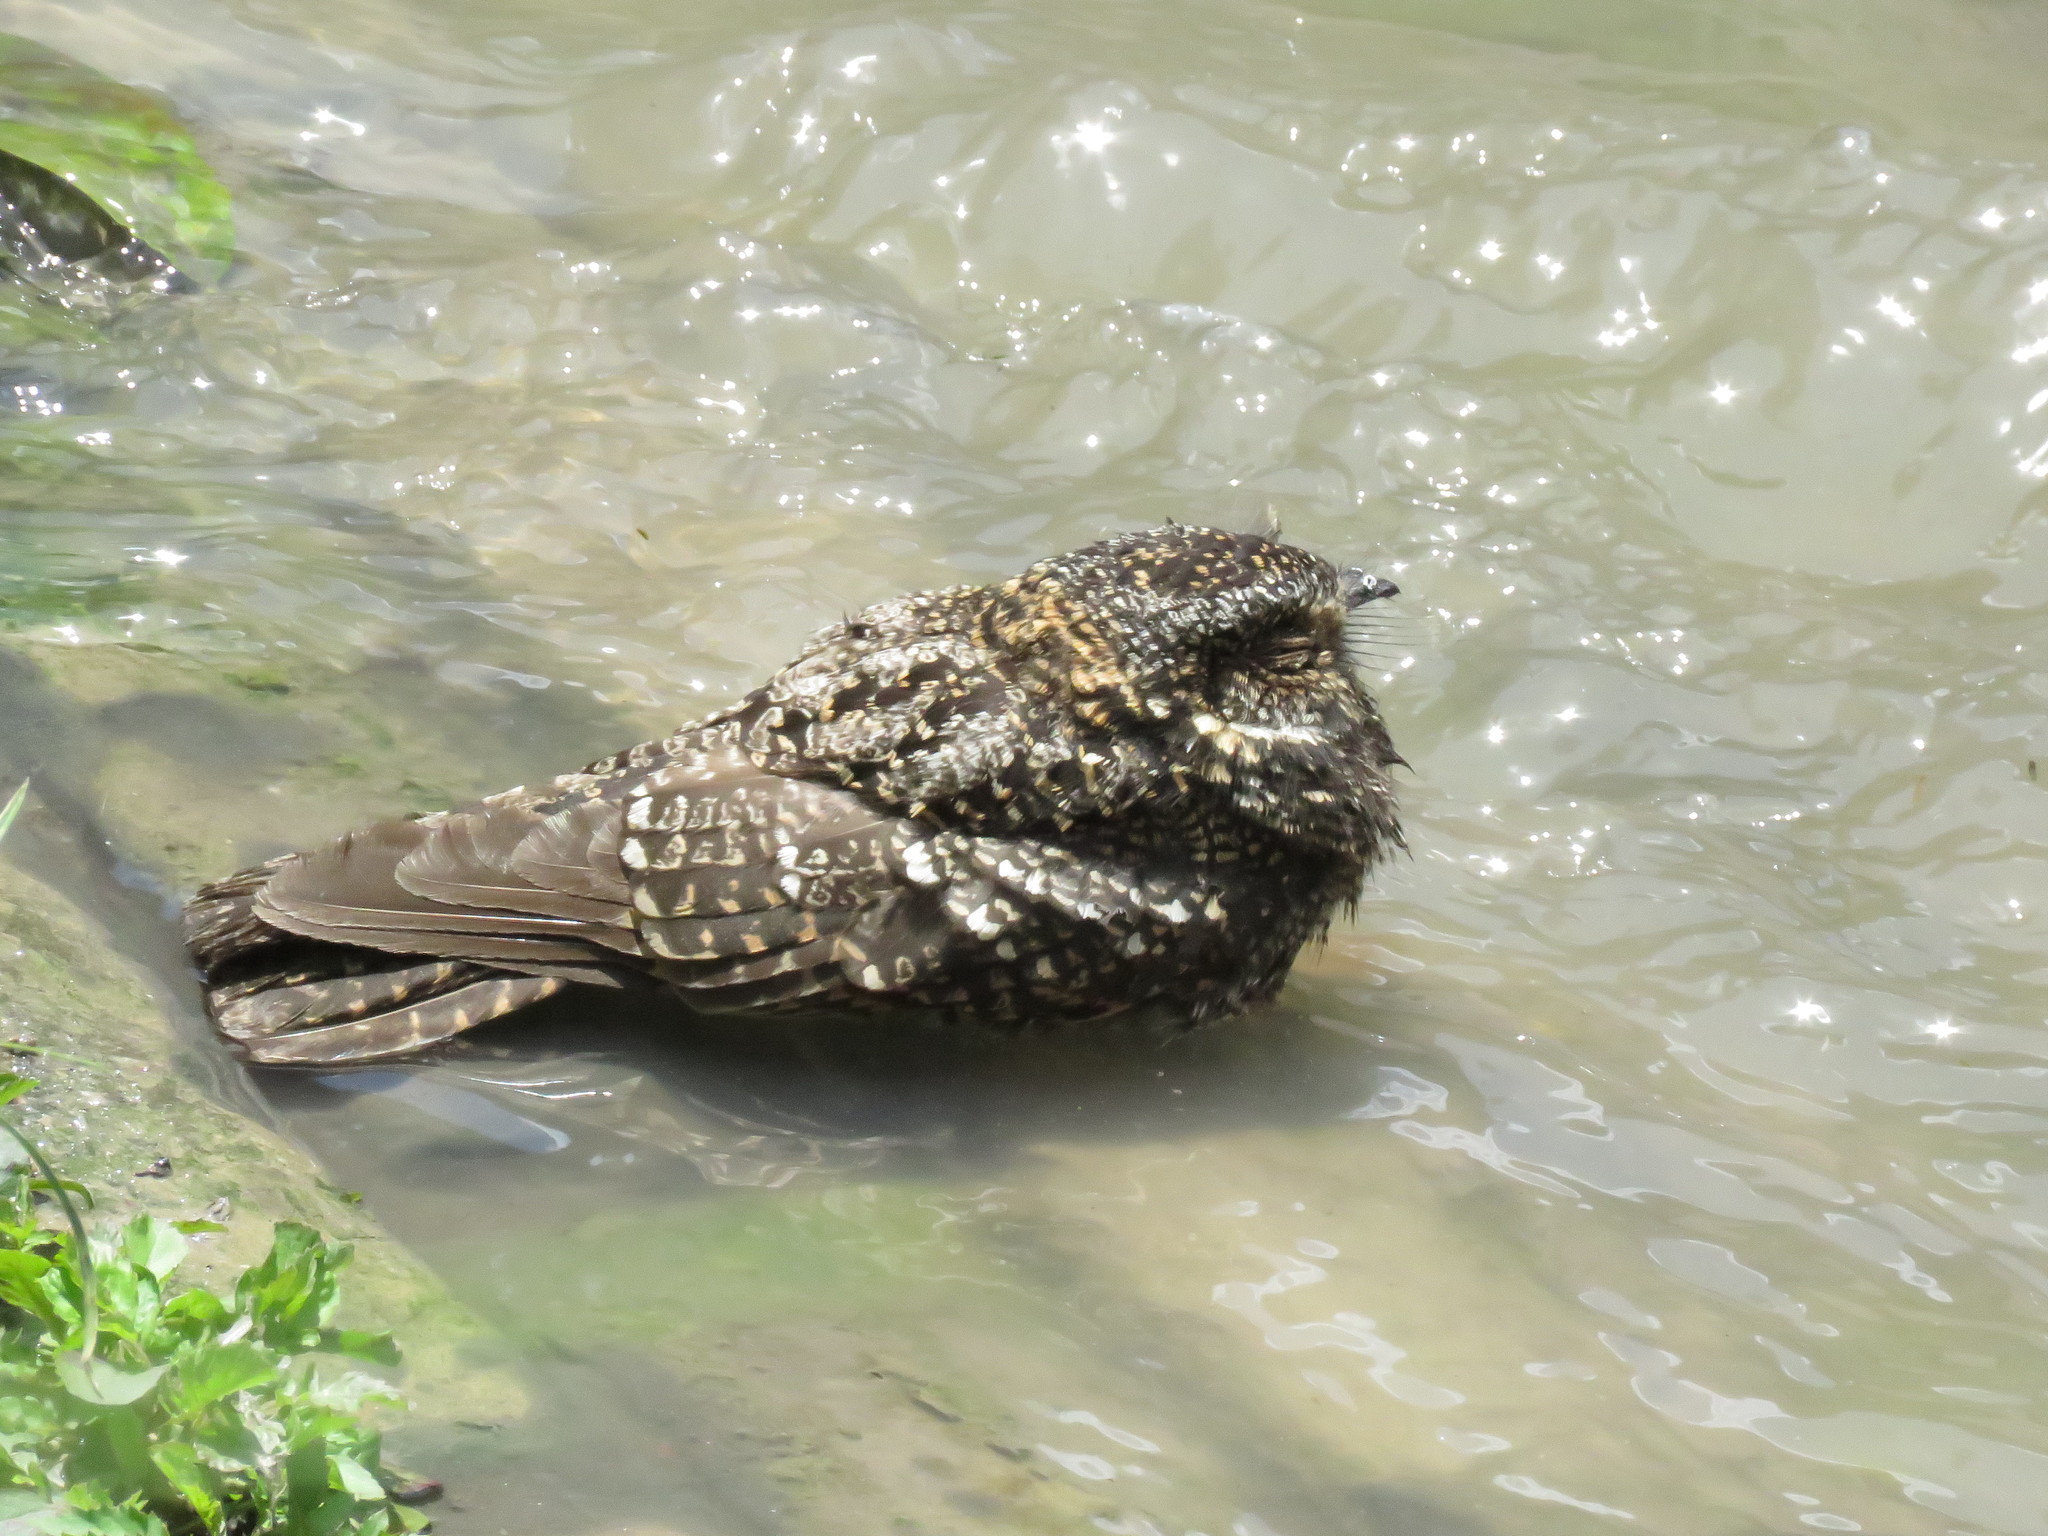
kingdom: Animalia
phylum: Chordata
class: Aves
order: Caprimulgiformes
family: Caprimulgidae
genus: Systellura
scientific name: Systellura longirostris
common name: Band-winged nightjar
